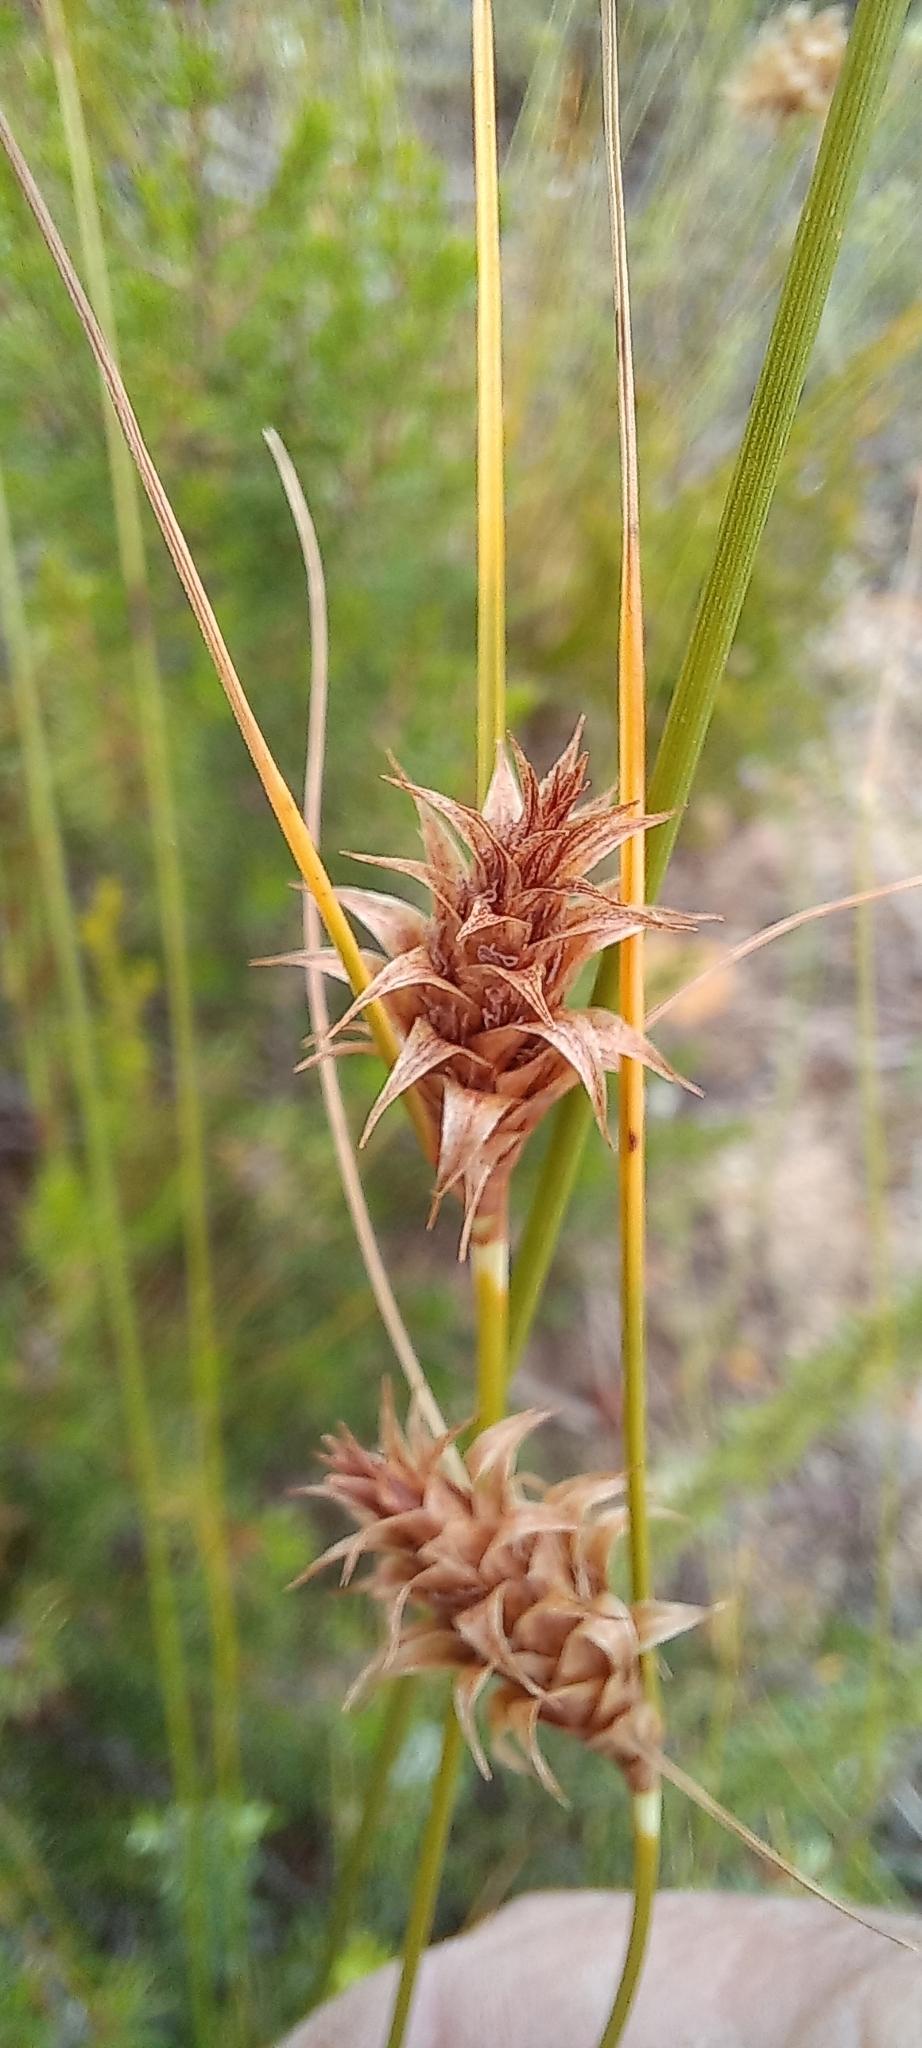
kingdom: Plantae
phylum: Tracheophyta
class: Liliopsida
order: Poales
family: Cyperaceae
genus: Ficinia
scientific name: Ficinia nigrescens
